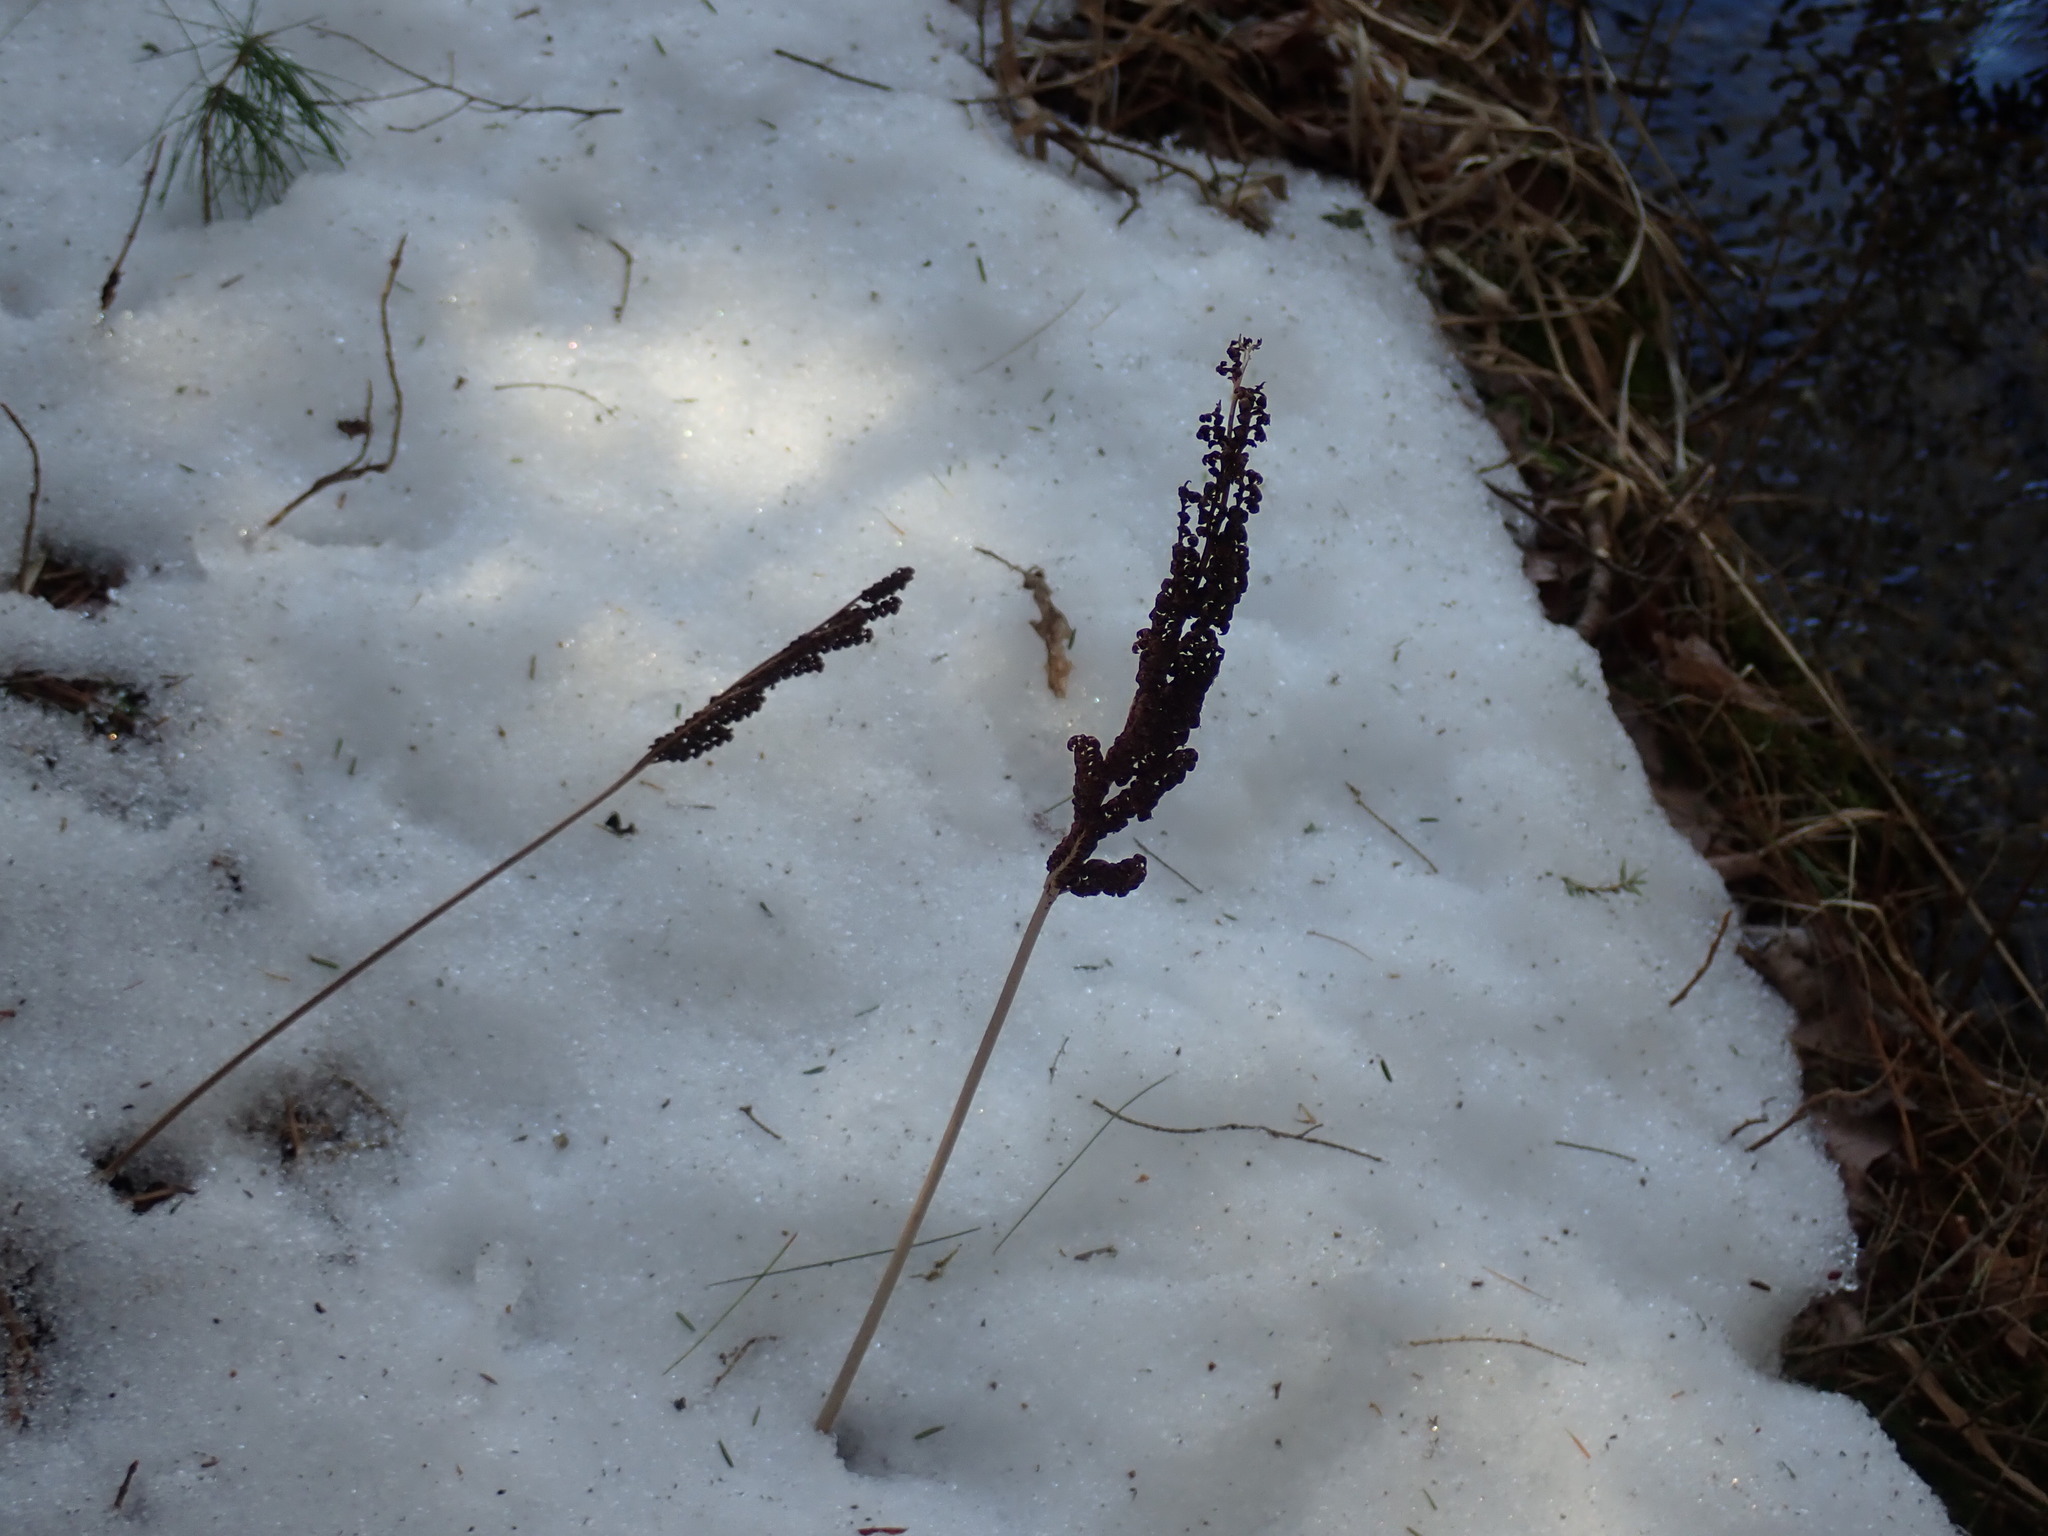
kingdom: Plantae
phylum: Tracheophyta
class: Polypodiopsida
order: Polypodiales
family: Onocleaceae
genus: Onoclea
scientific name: Onoclea sensibilis
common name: Sensitive fern
